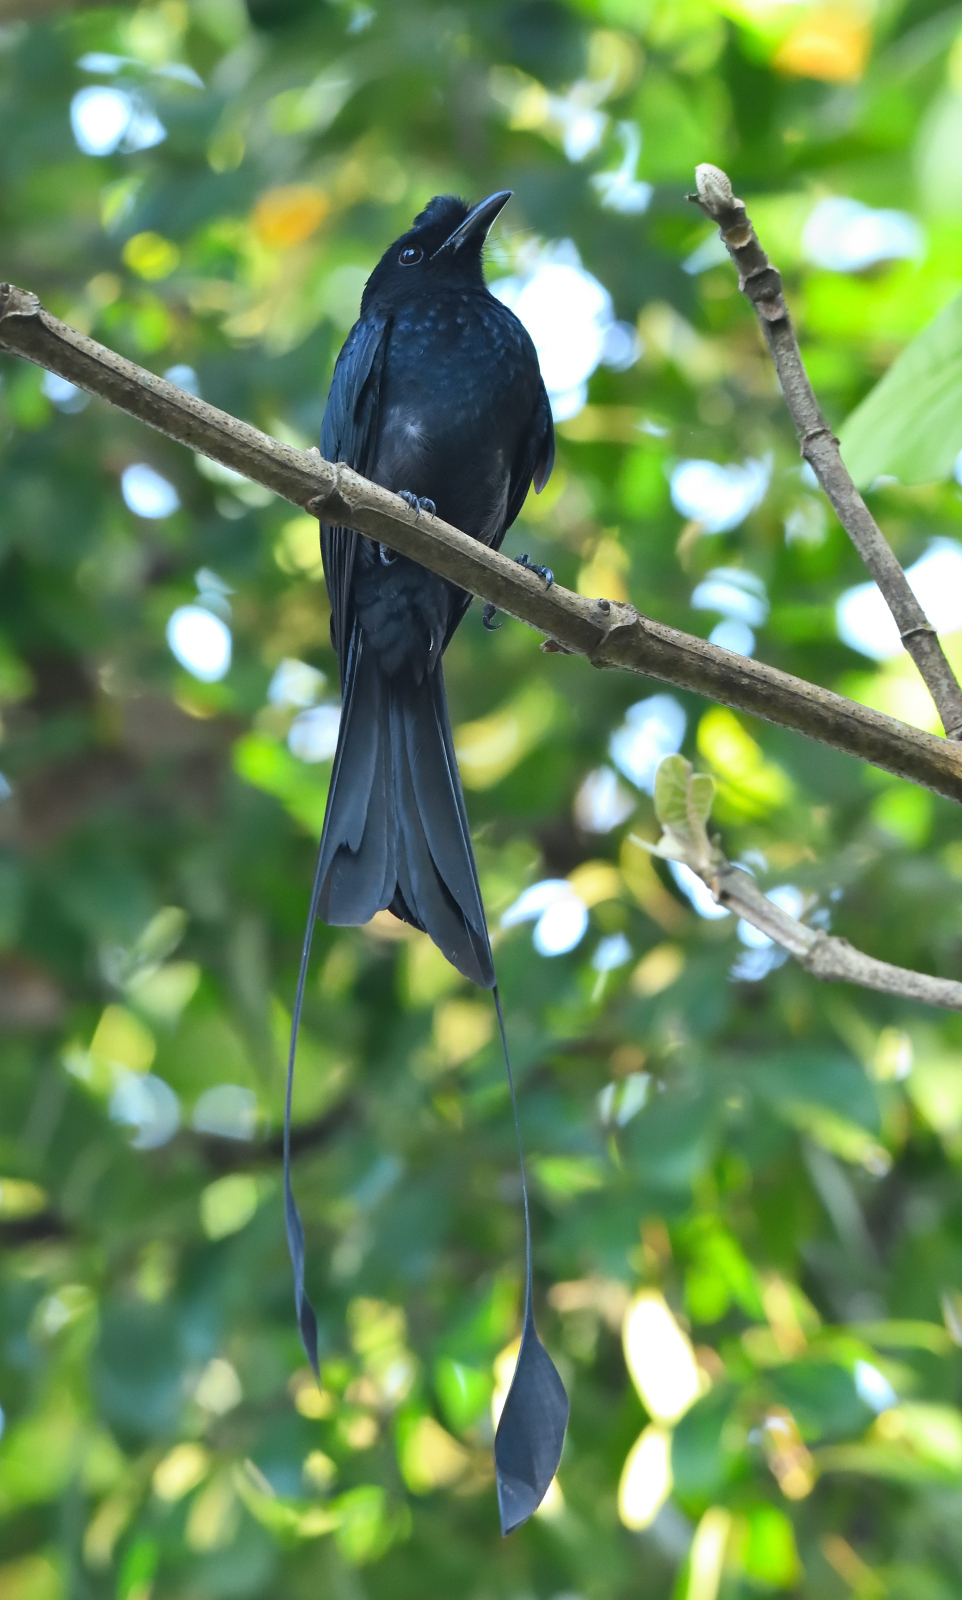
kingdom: Animalia
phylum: Chordata
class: Aves
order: Passeriformes
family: Dicruridae
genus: Dicrurus
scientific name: Dicrurus paradiseus
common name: Greater racket-tailed drongo
